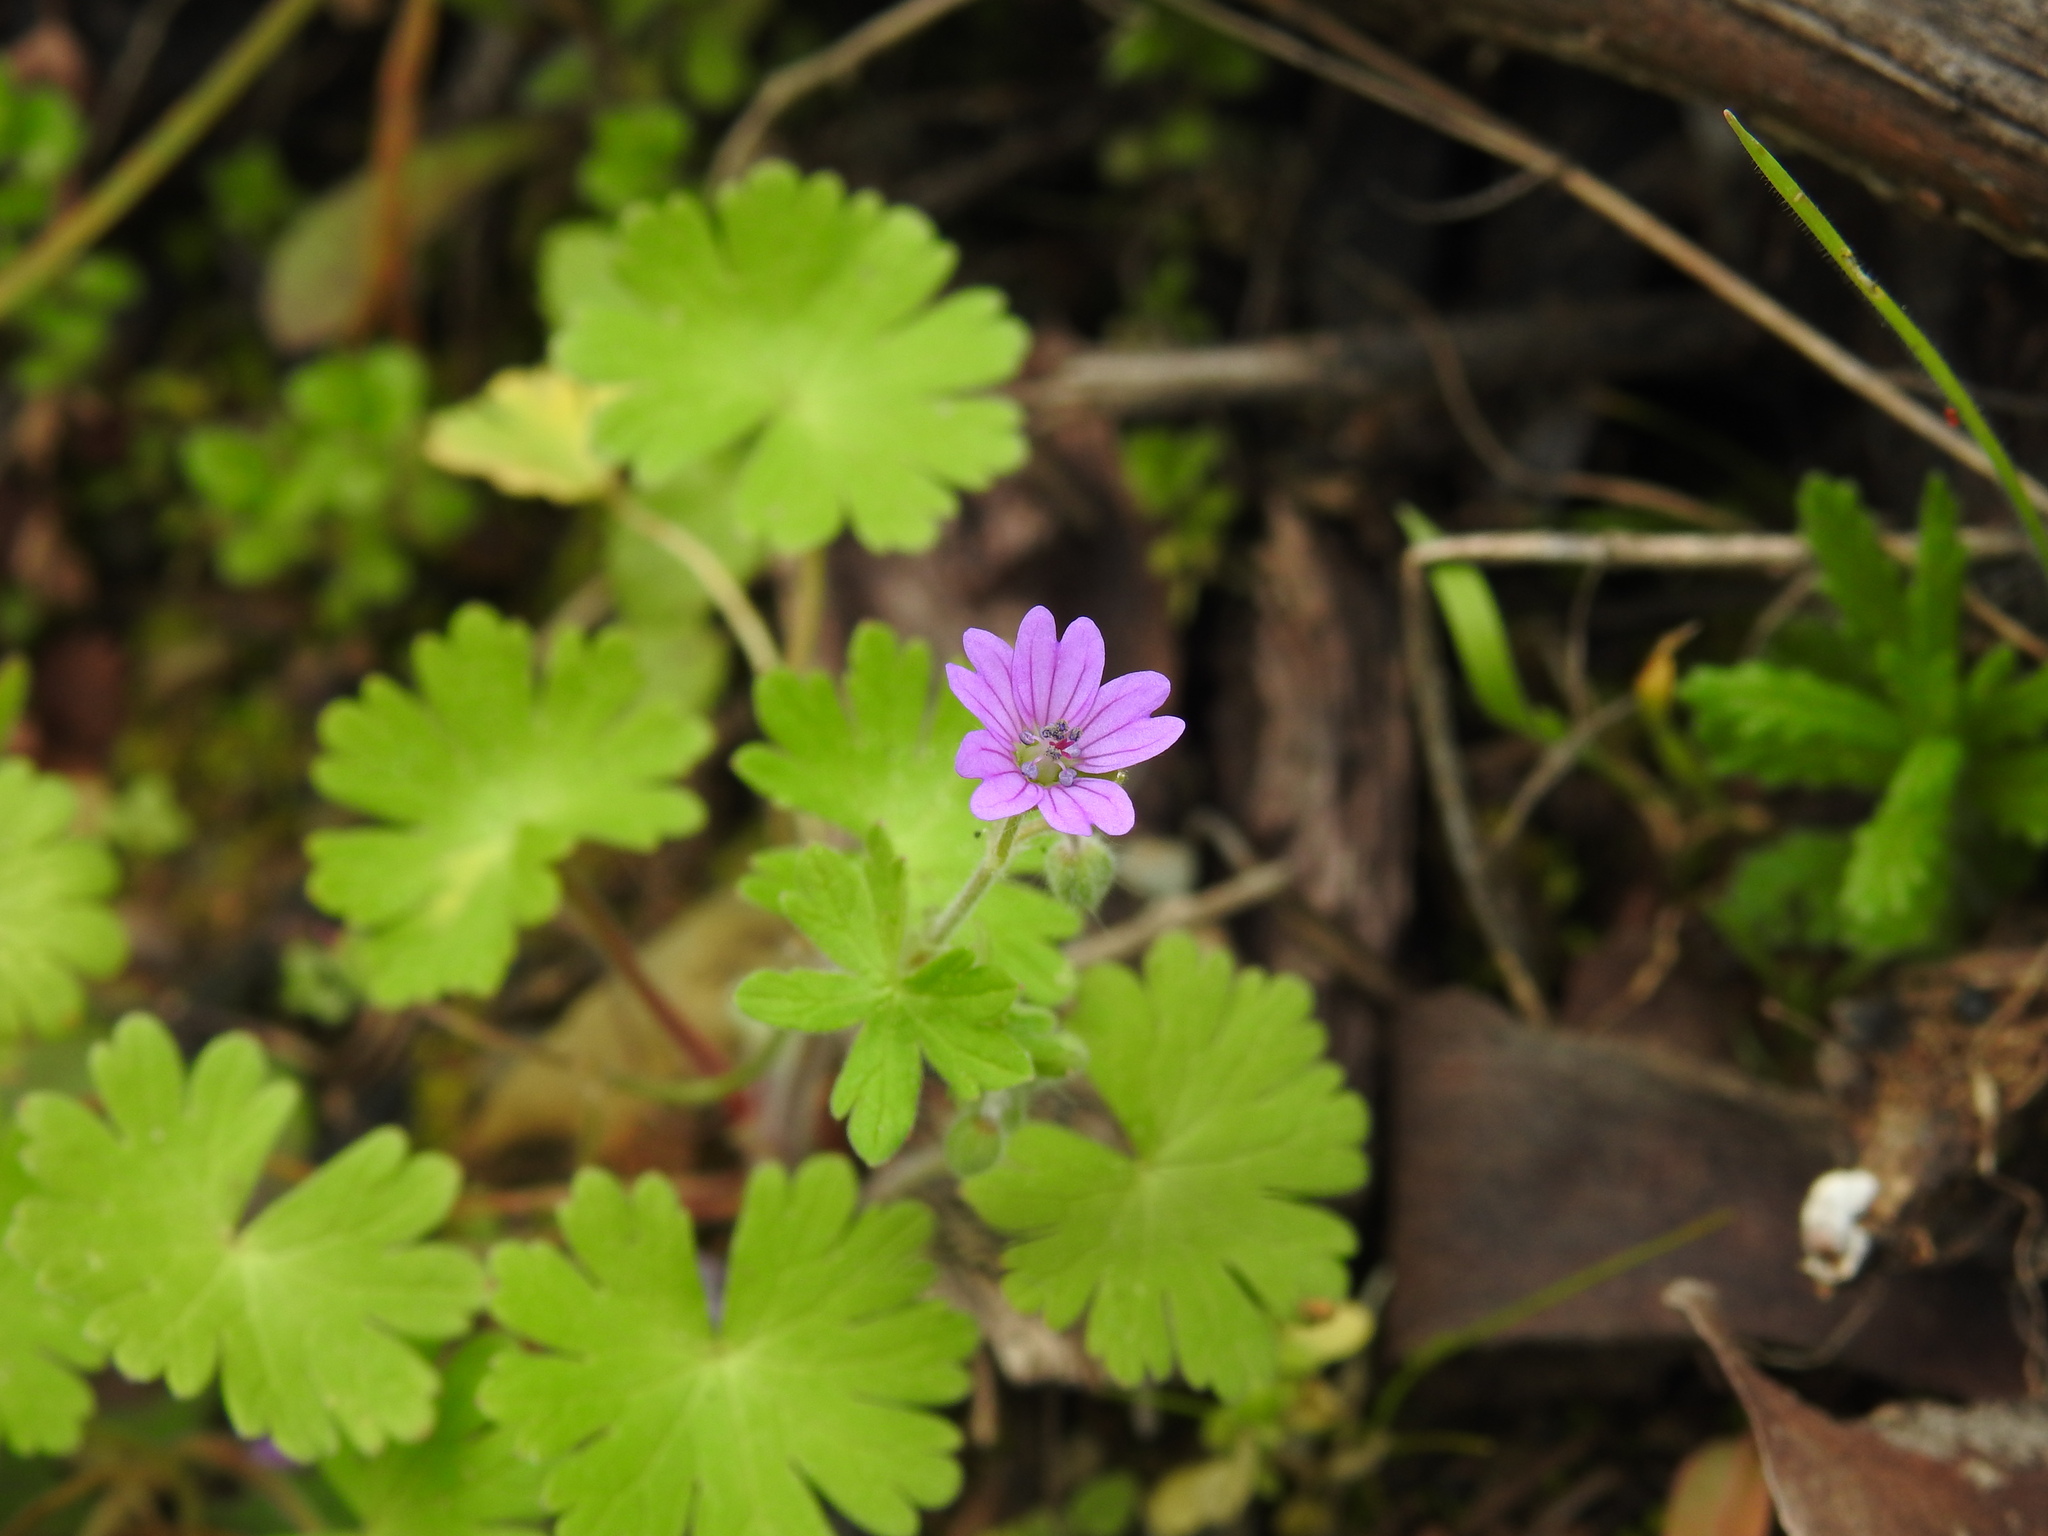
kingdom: Plantae
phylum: Tracheophyta
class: Magnoliopsida
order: Geraniales
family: Geraniaceae
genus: Geranium
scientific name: Geranium molle
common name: Dove's-foot crane's-bill
